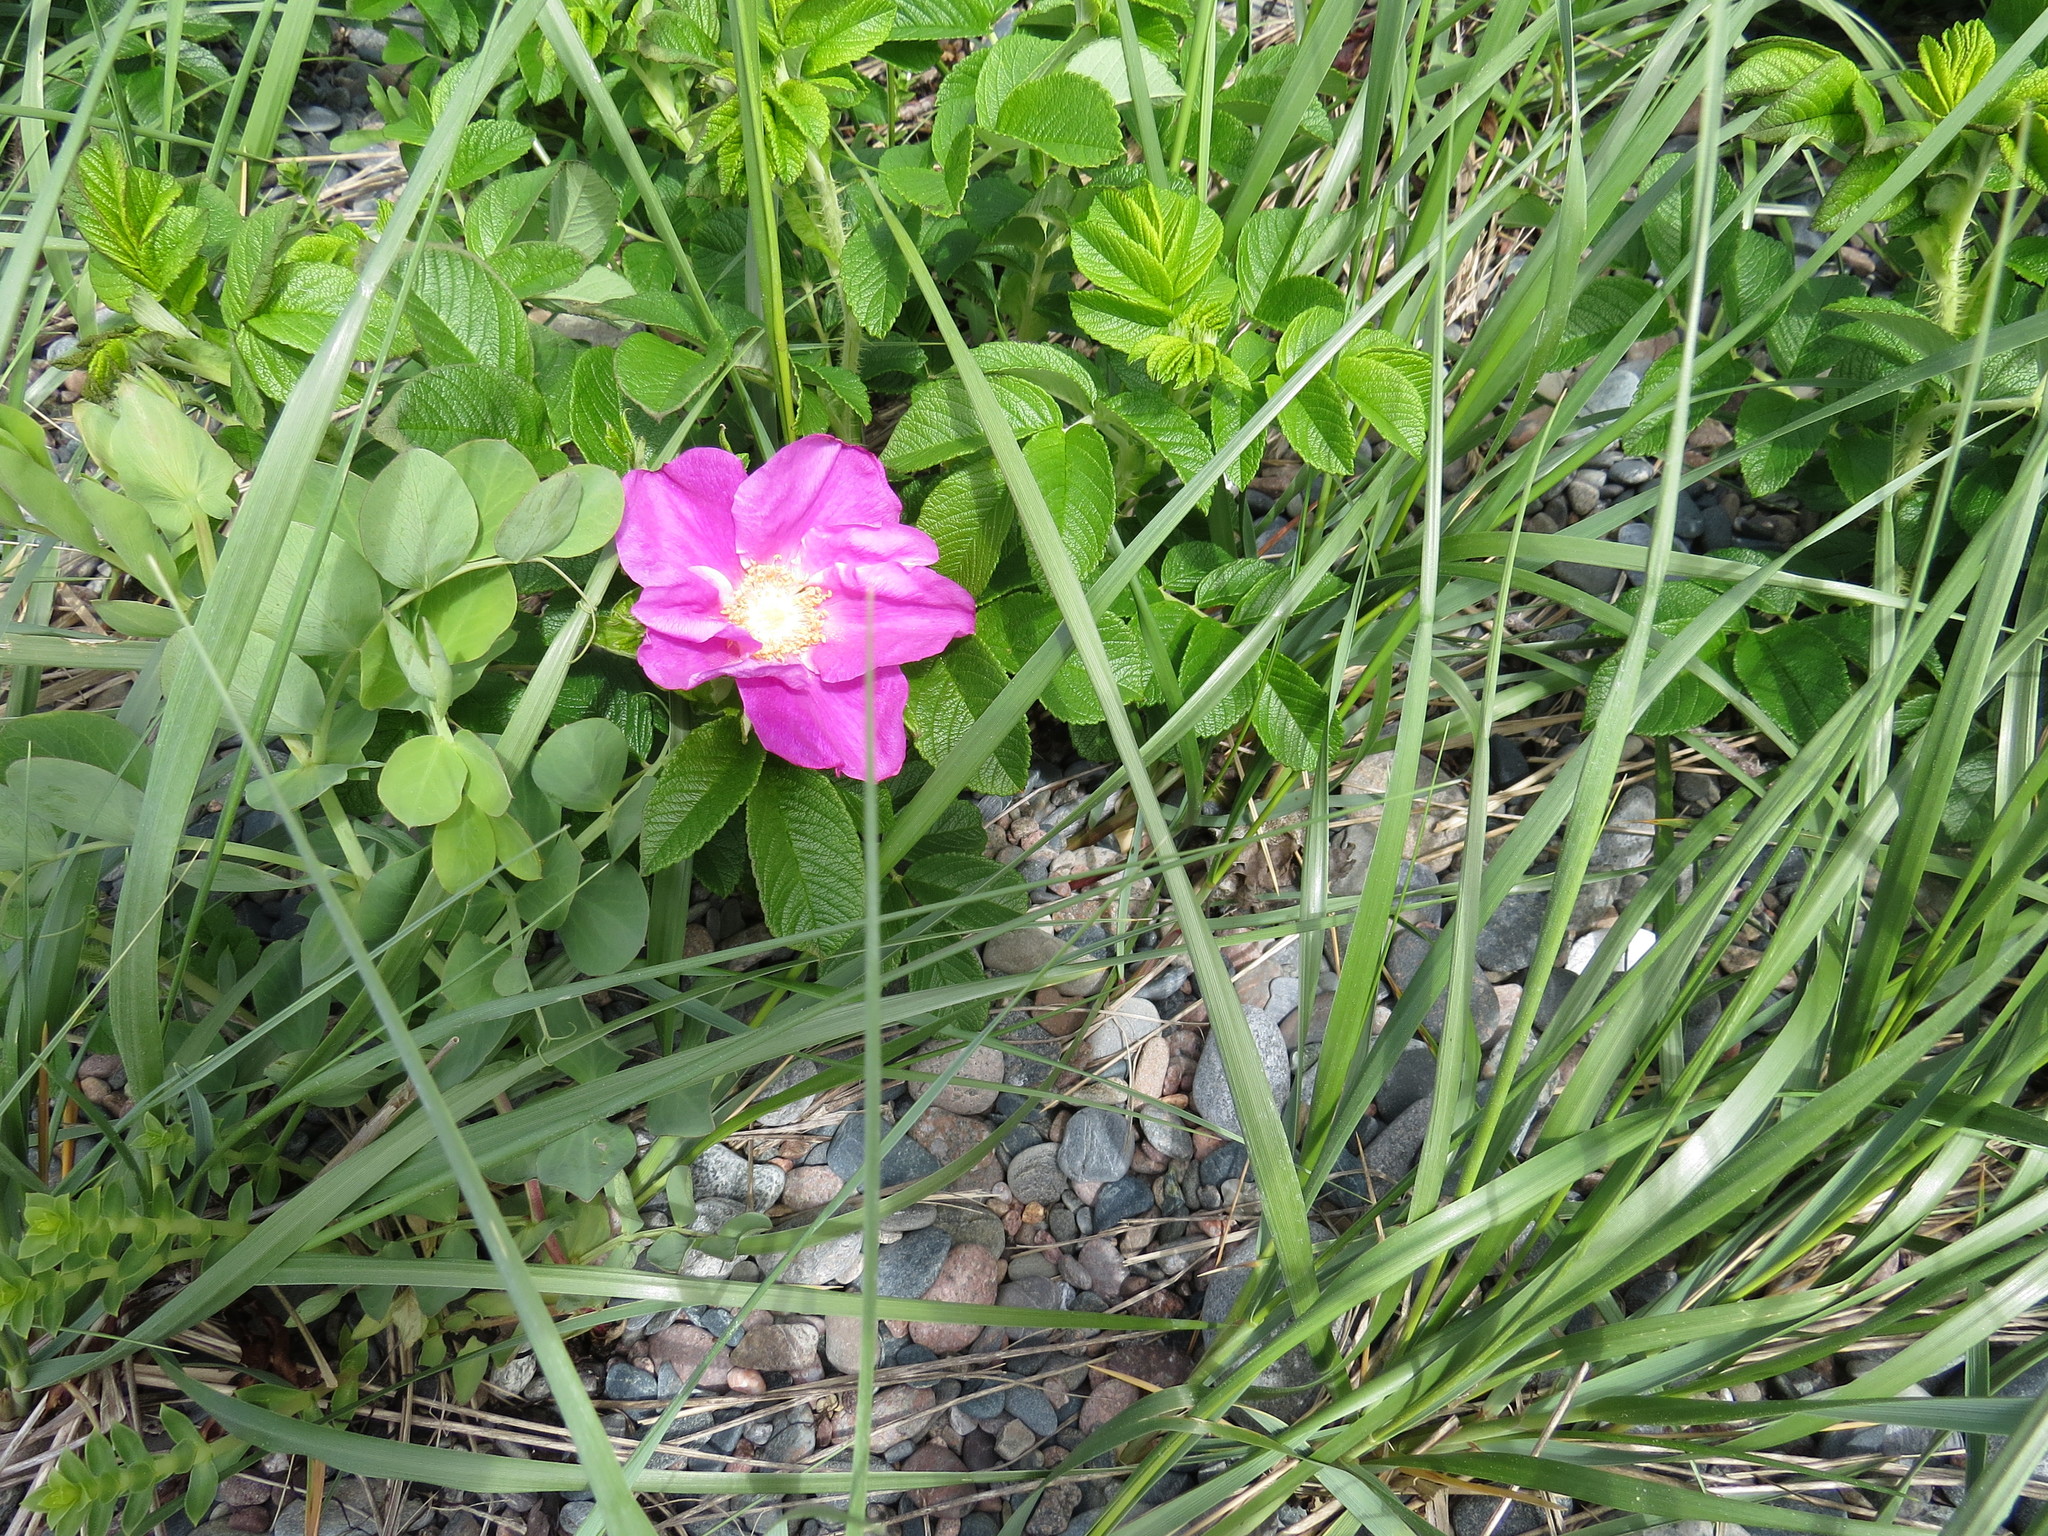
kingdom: Plantae
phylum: Tracheophyta
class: Magnoliopsida
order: Rosales
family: Rosaceae
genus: Rosa
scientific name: Rosa rugosa
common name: Japanese rose
